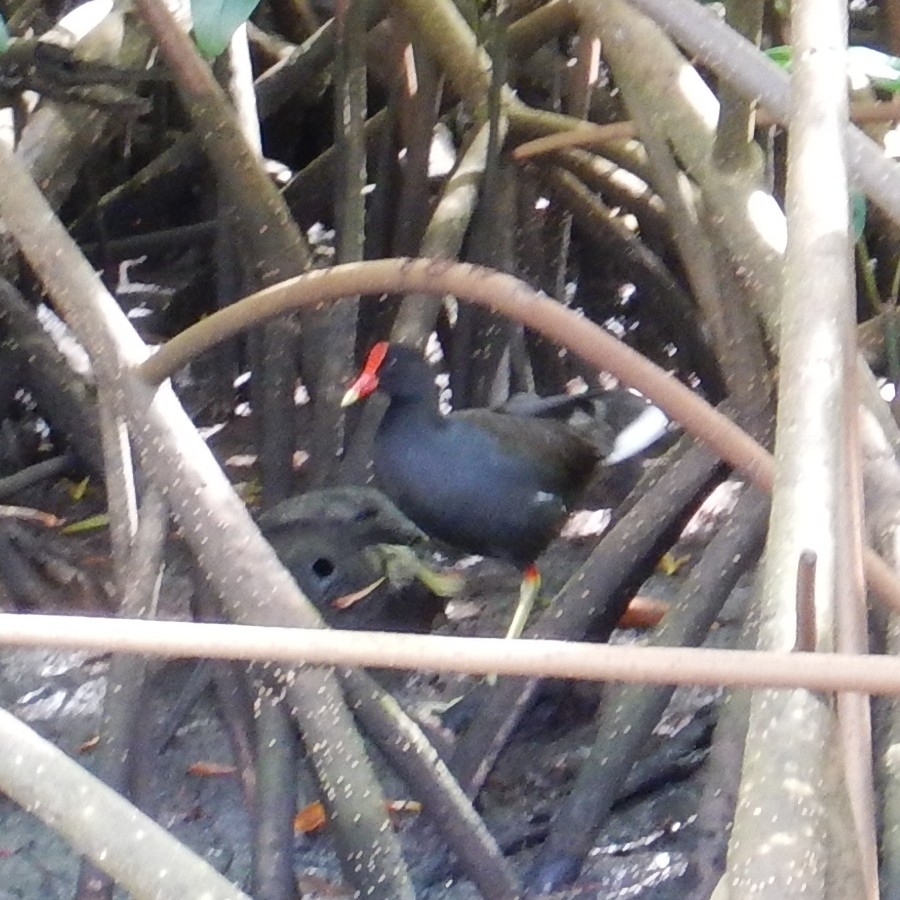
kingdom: Animalia
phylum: Chordata
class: Aves
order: Gruiformes
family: Rallidae
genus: Gallinula
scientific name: Gallinula chloropus
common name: Common moorhen
